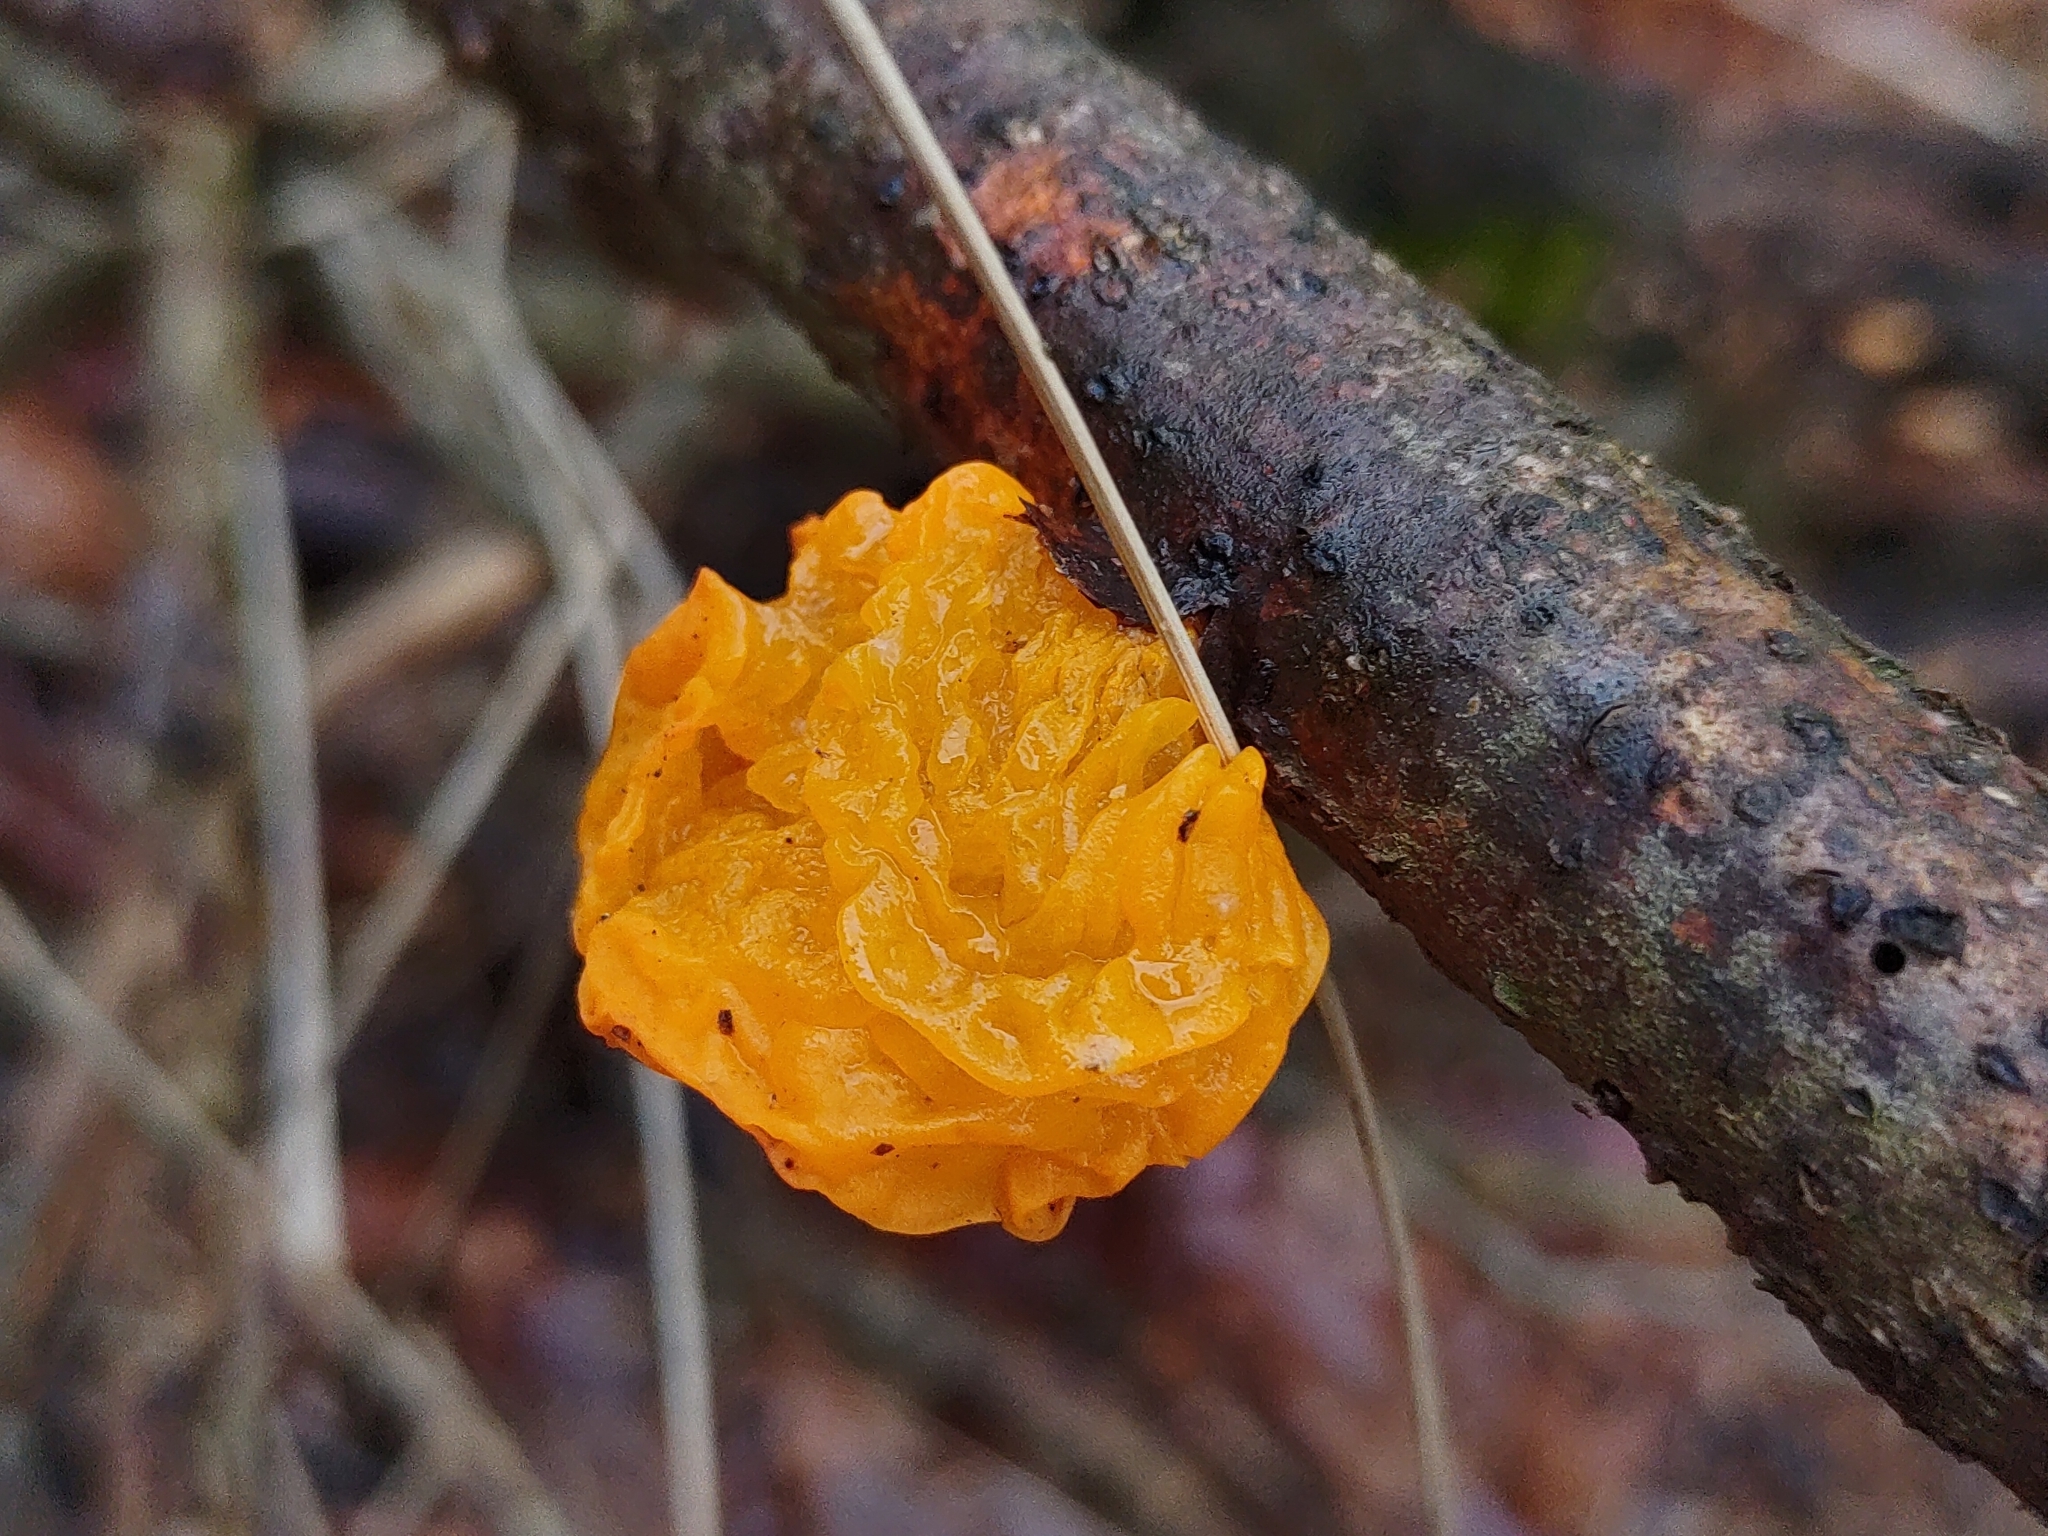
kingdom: Fungi
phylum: Basidiomycota
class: Tremellomycetes
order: Tremellales
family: Tremellaceae
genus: Tremella
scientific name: Tremella mesenterica
